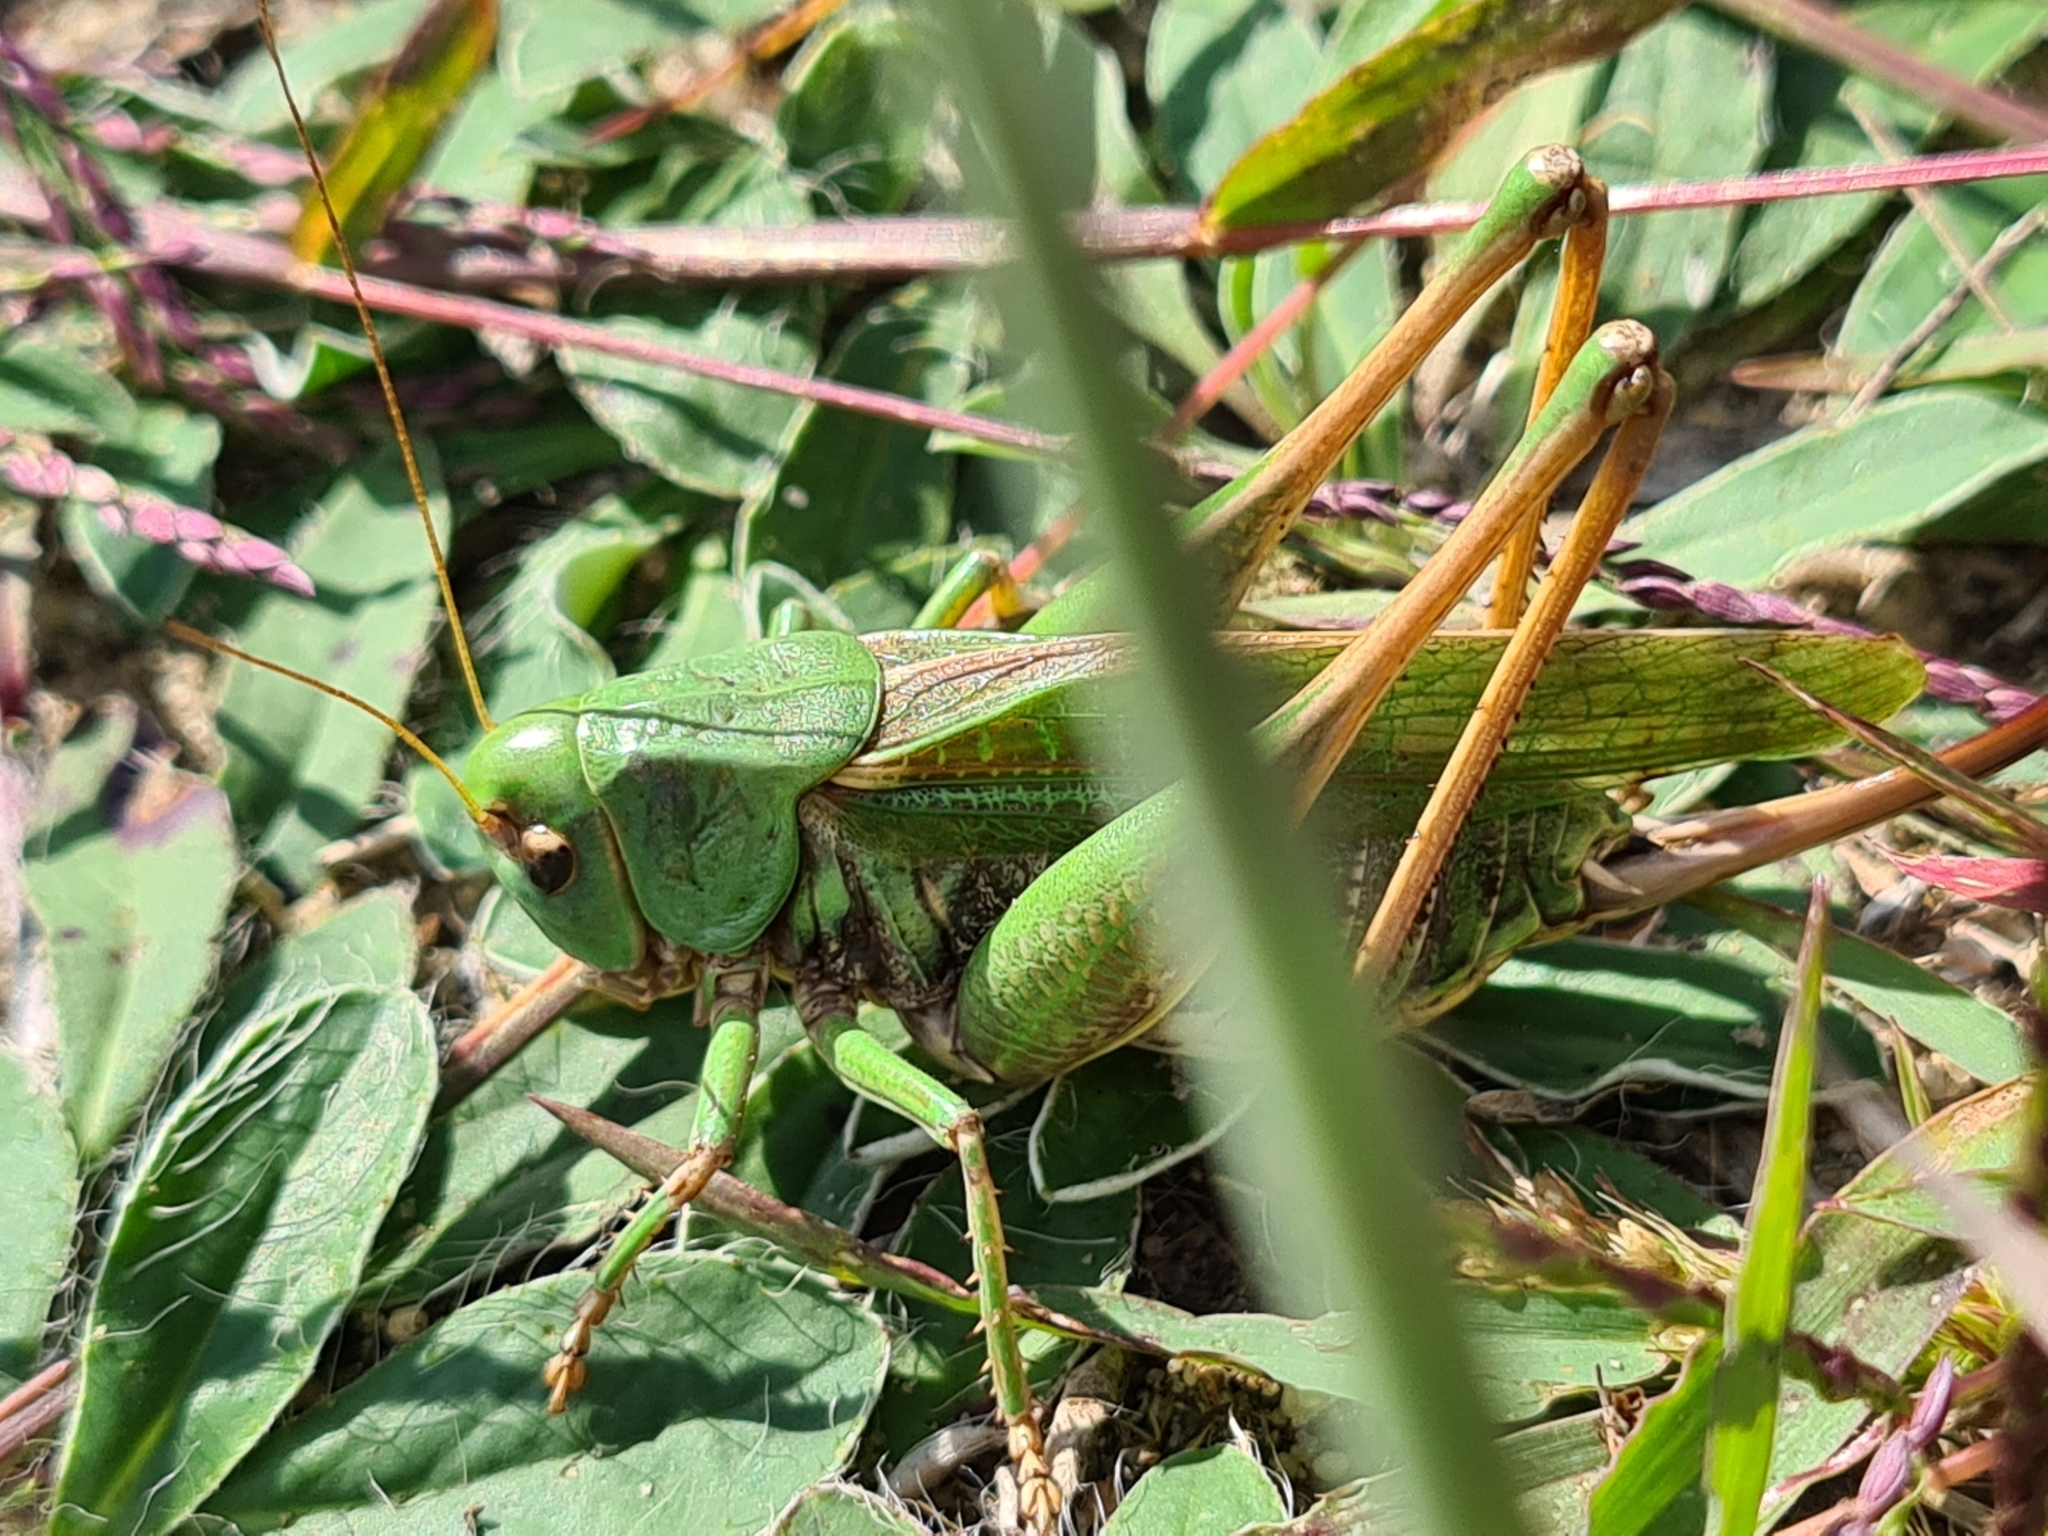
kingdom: Animalia
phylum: Arthropoda
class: Insecta
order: Orthoptera
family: Tettigoniidae
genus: Decticus
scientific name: Decticus verrucivorus
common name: Wart-biter
